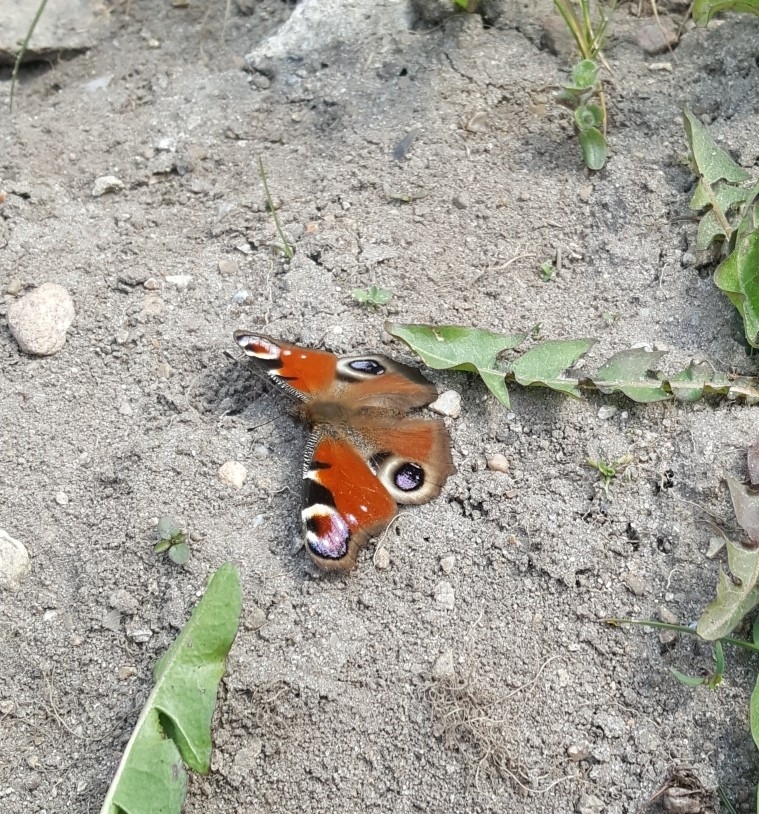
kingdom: Animalia
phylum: Arthropoda
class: Insecta
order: Lepidoptera
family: Nymphalidae
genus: Aglais
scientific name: Aglais io
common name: Peacock
